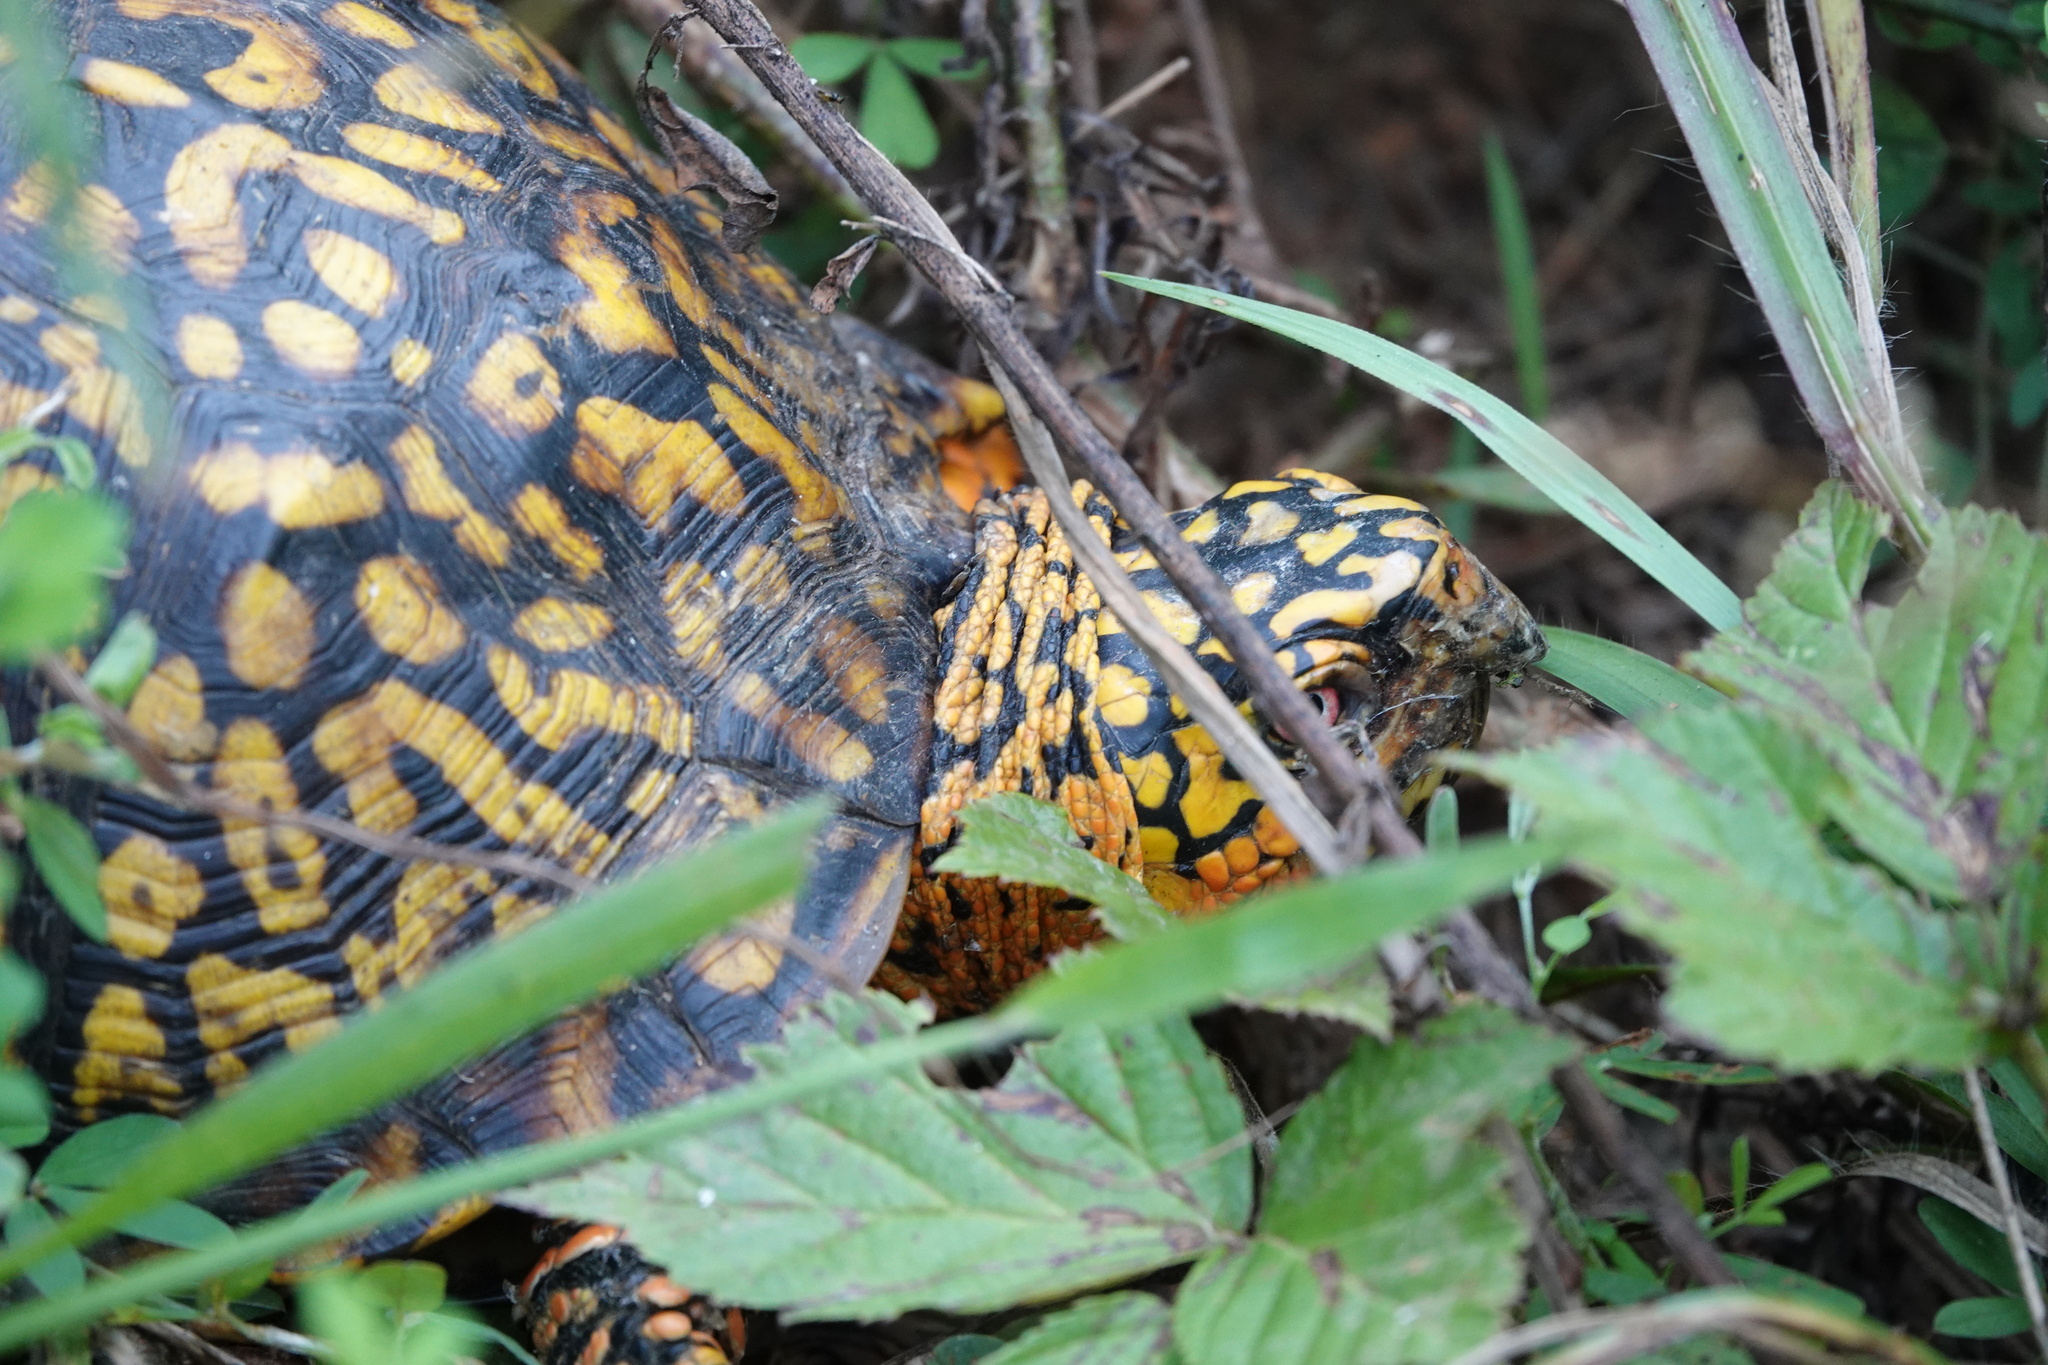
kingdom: Animalia
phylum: Chordata
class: Testudines
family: Emydidae
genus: Terrapene
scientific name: Terrapene carolina
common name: Common box turtle
